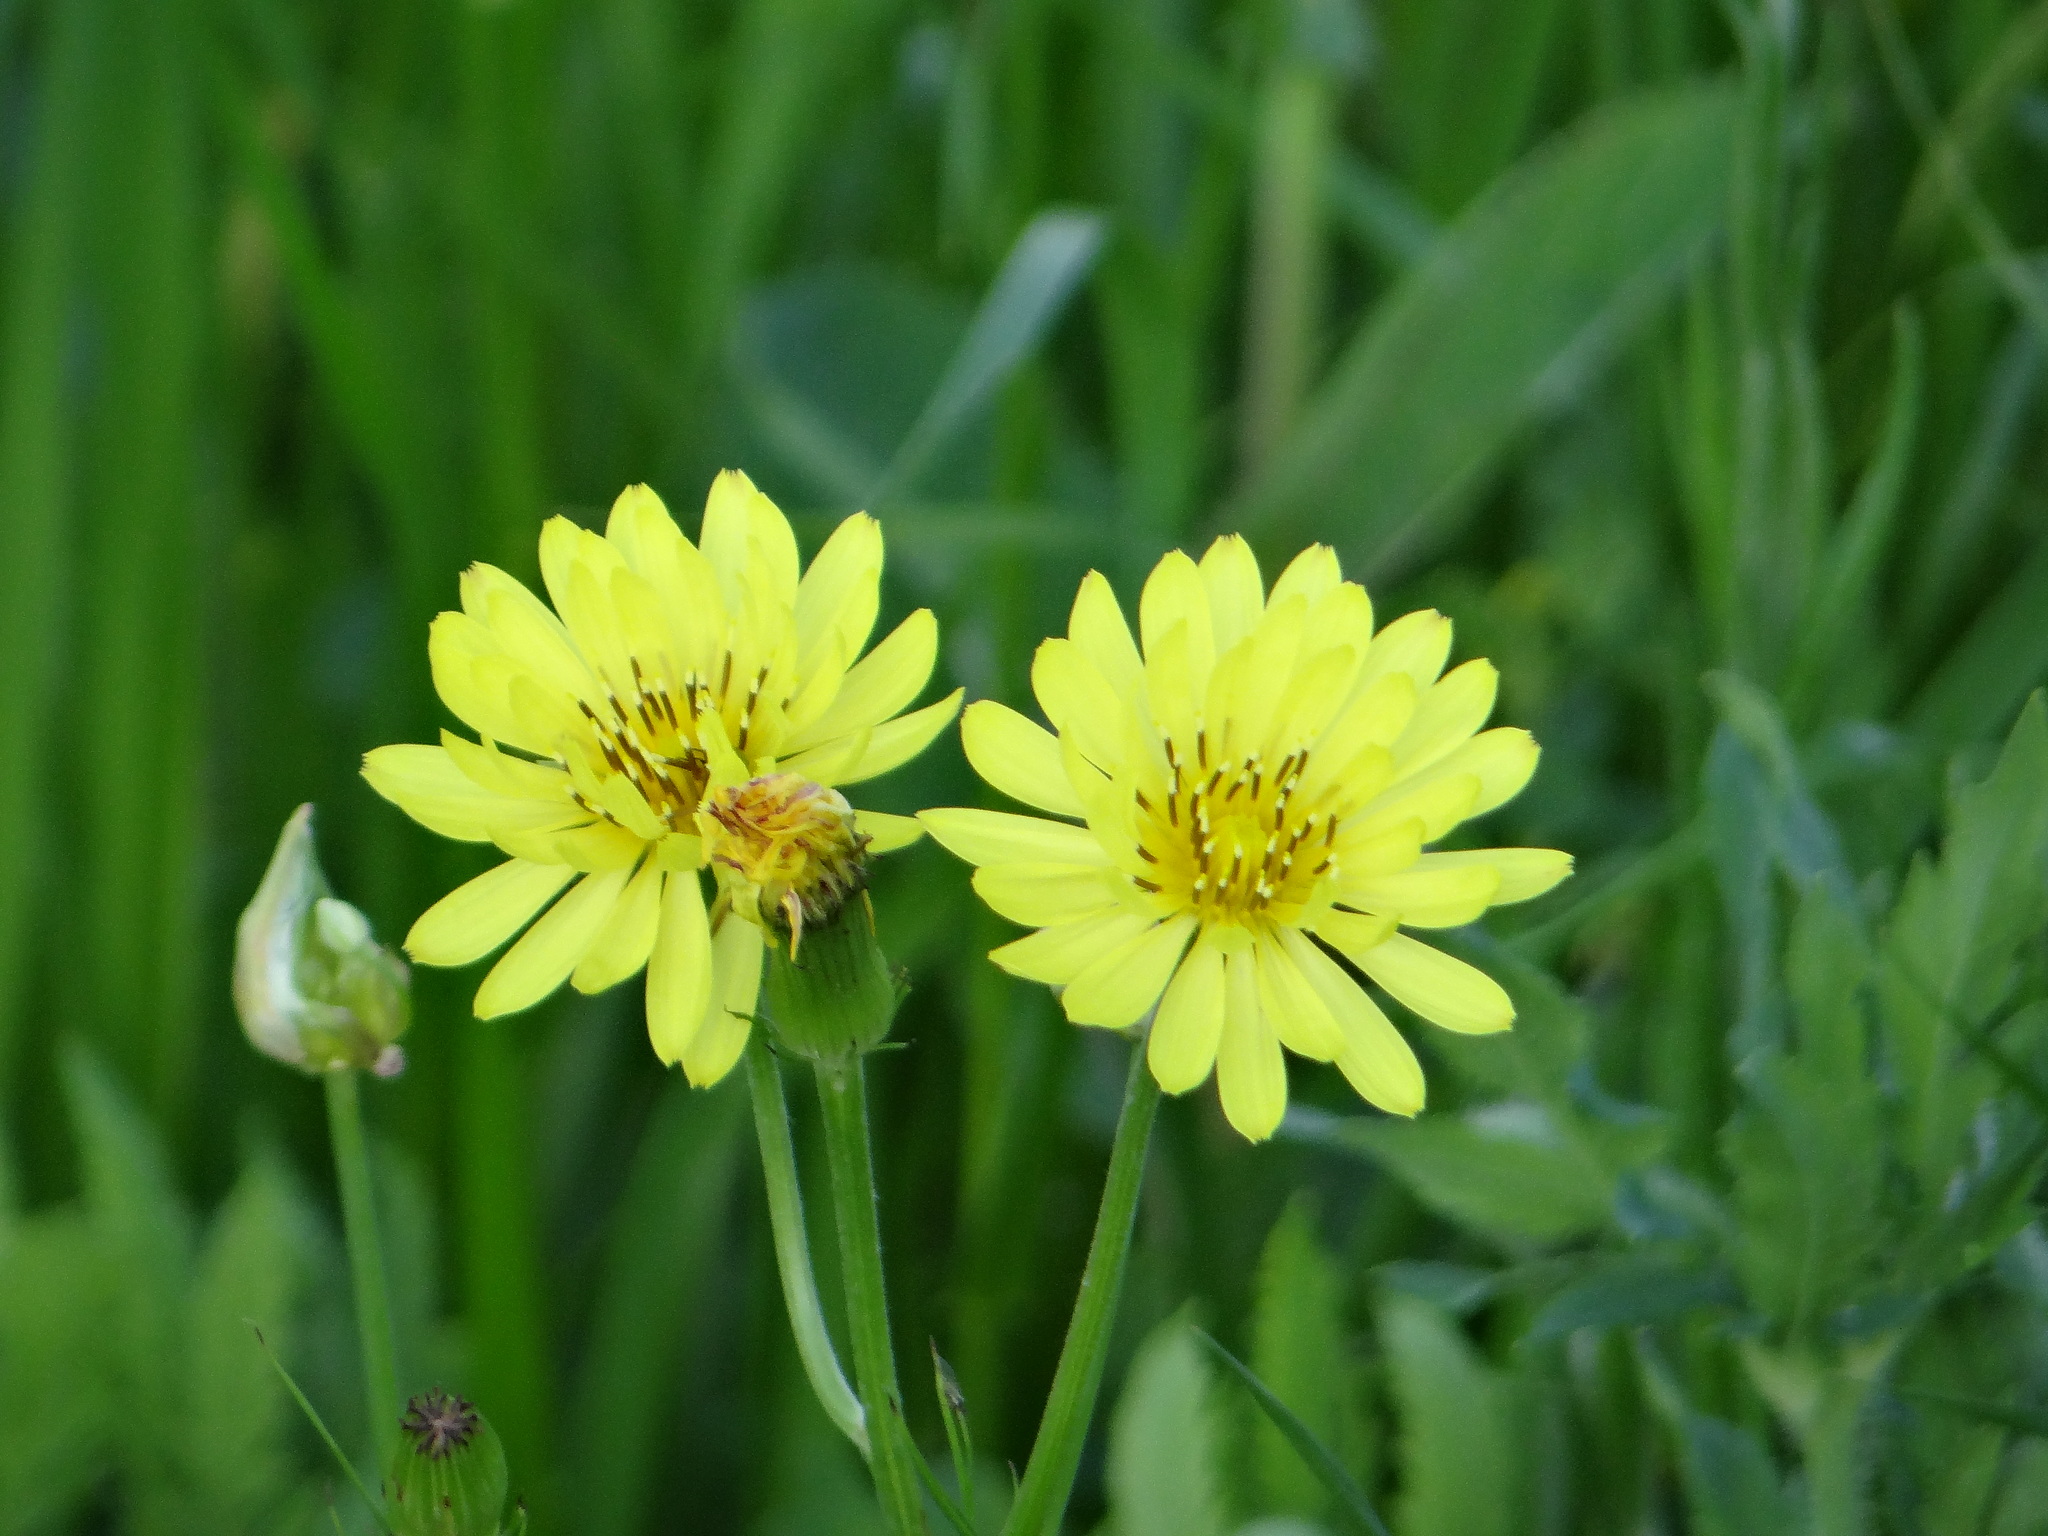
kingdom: Plantae
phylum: Tracheophyta
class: Magnoliopsida
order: Asterales
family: Asteraceae
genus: Pyrrhopappus
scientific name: Pyrrhopappus pauciflorus
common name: Texas false dandelion
